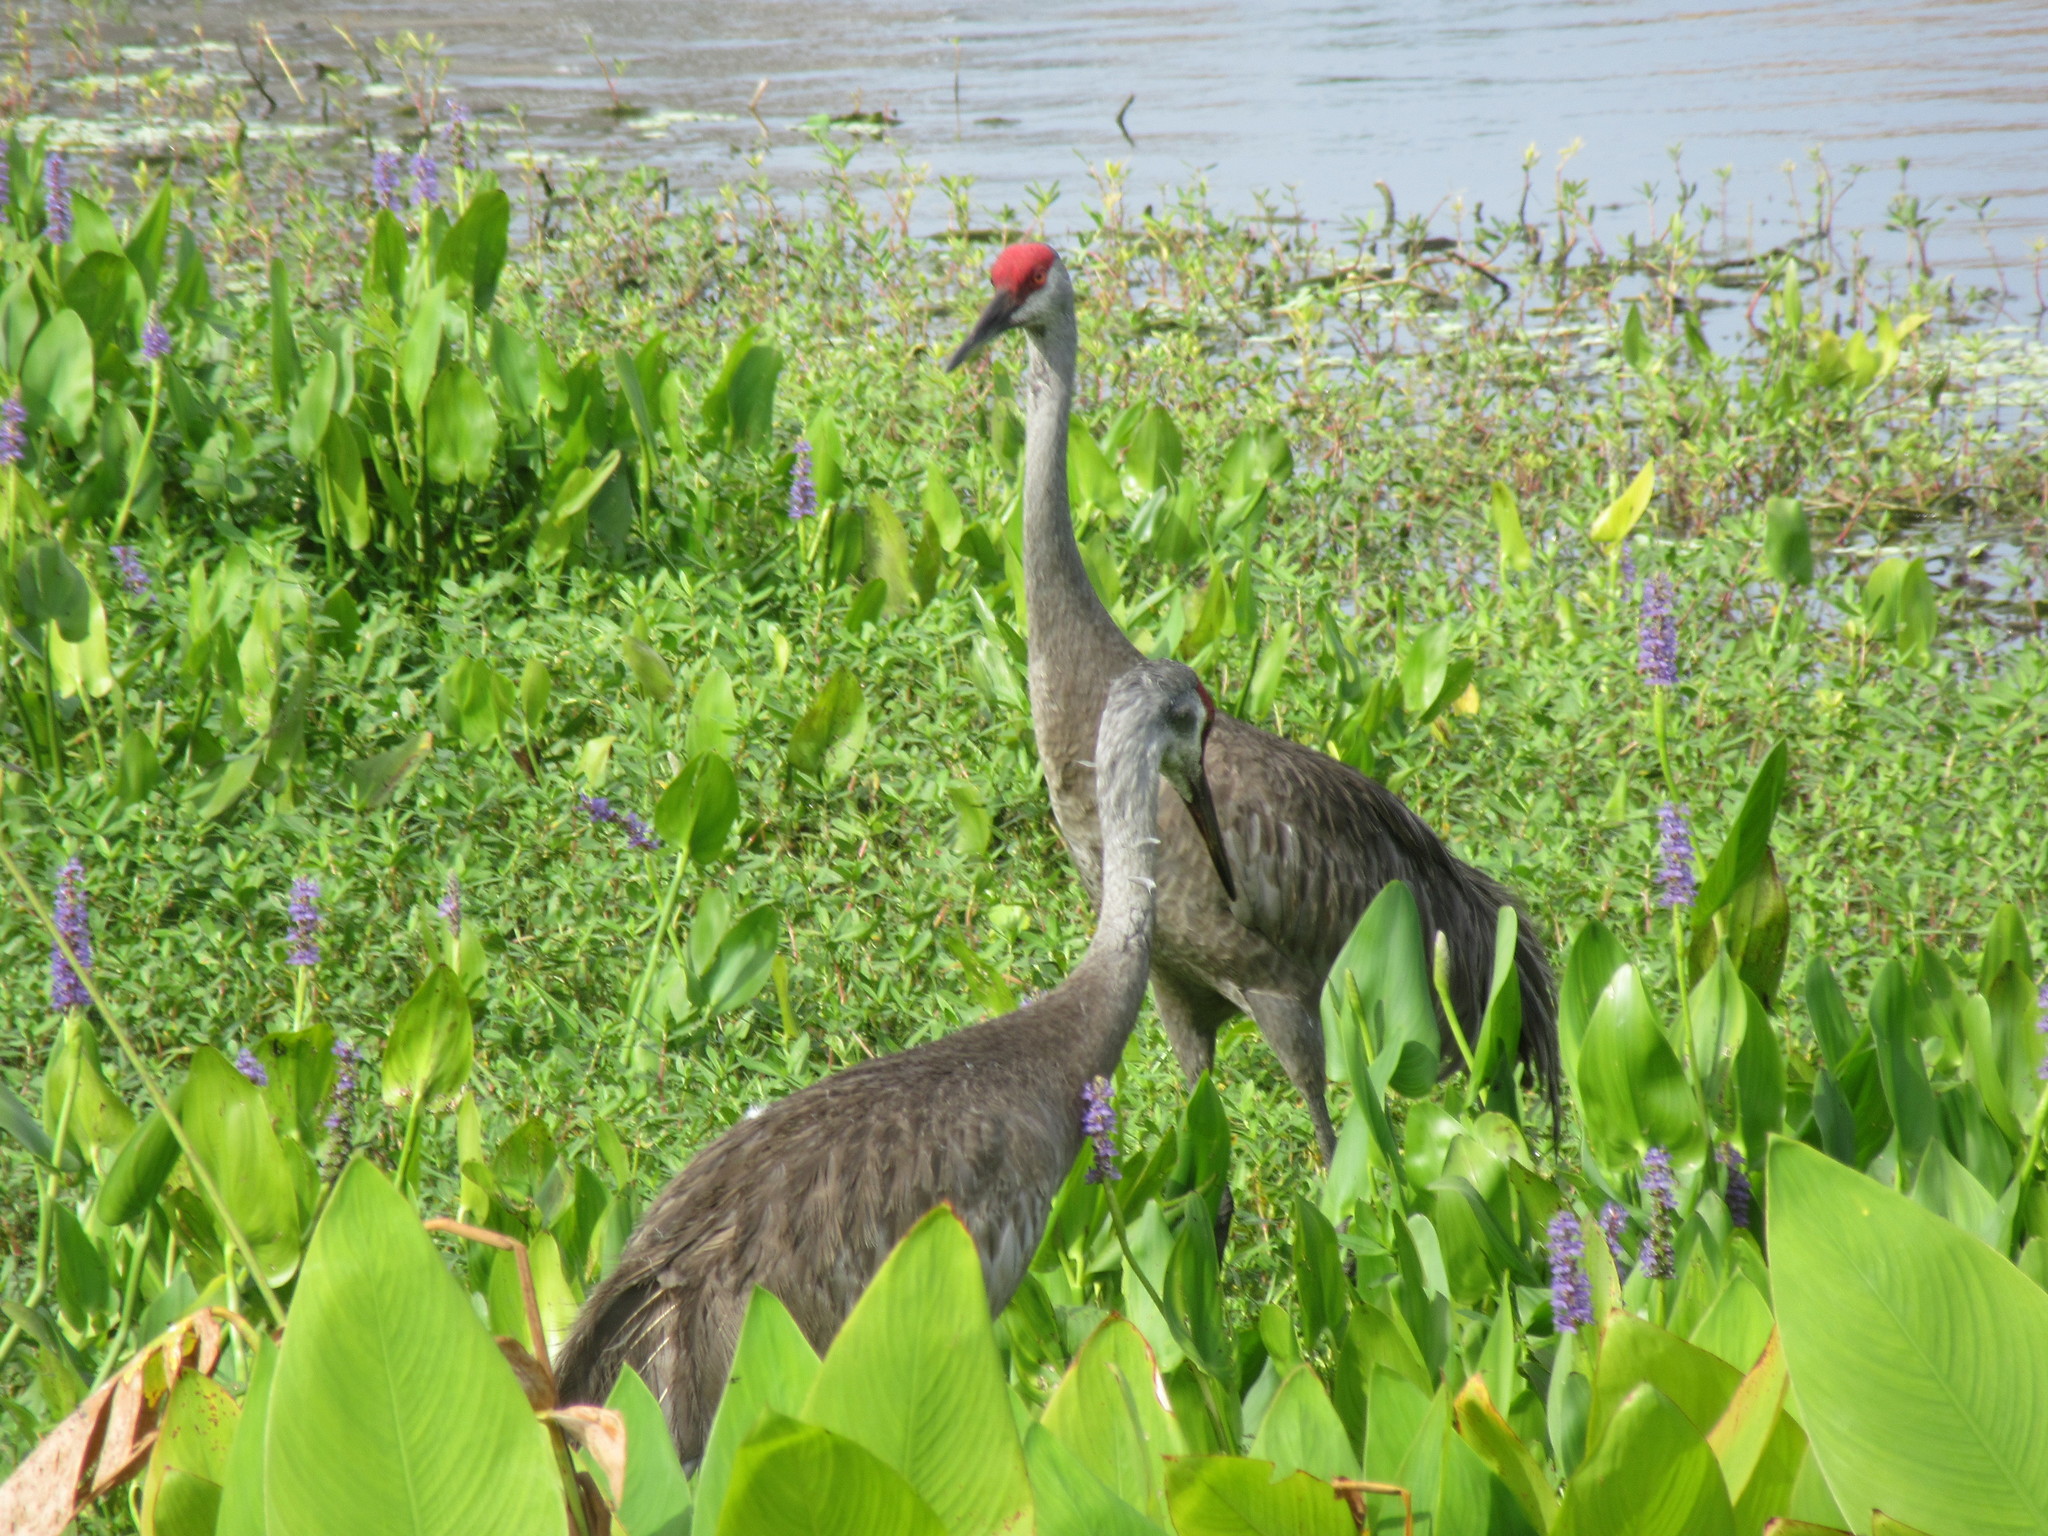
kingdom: Animalia
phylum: Chordata
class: Aves
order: Gruiformes
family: Gruidae
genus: Grus
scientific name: Grus canadensis
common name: Sandhill crane
